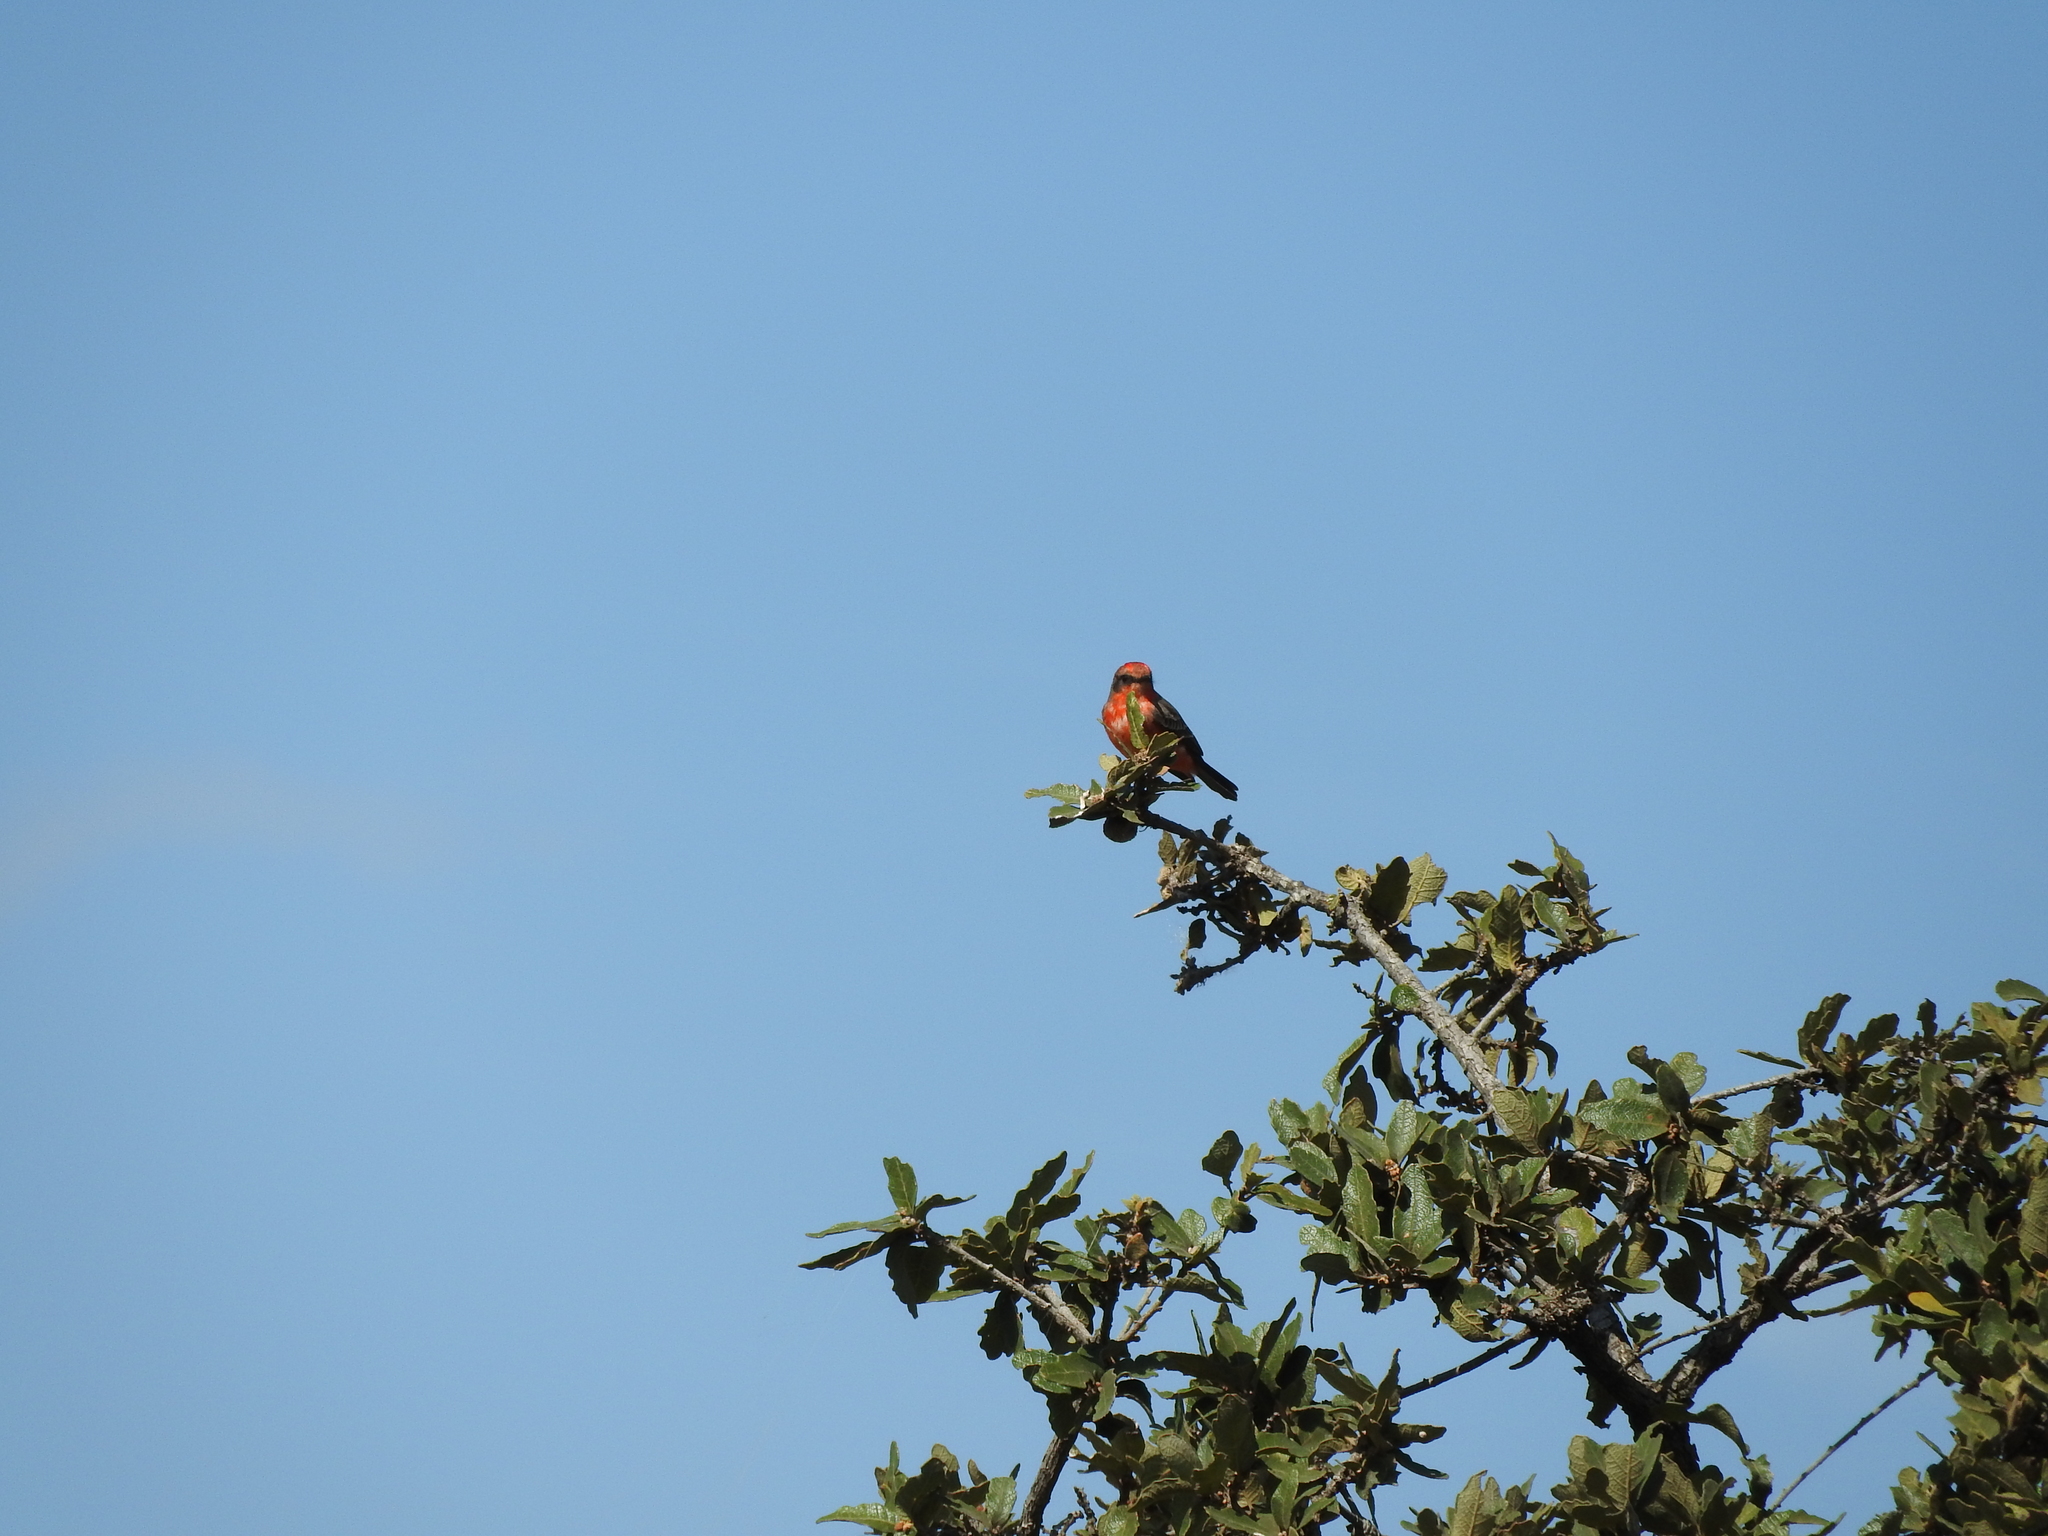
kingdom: Animalia
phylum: Chordata
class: Aves
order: Passeriformes
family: Tyrannidae
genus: Pyrocephalus
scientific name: Pyrocephalus rubinus
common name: Vermilion flycatcher
